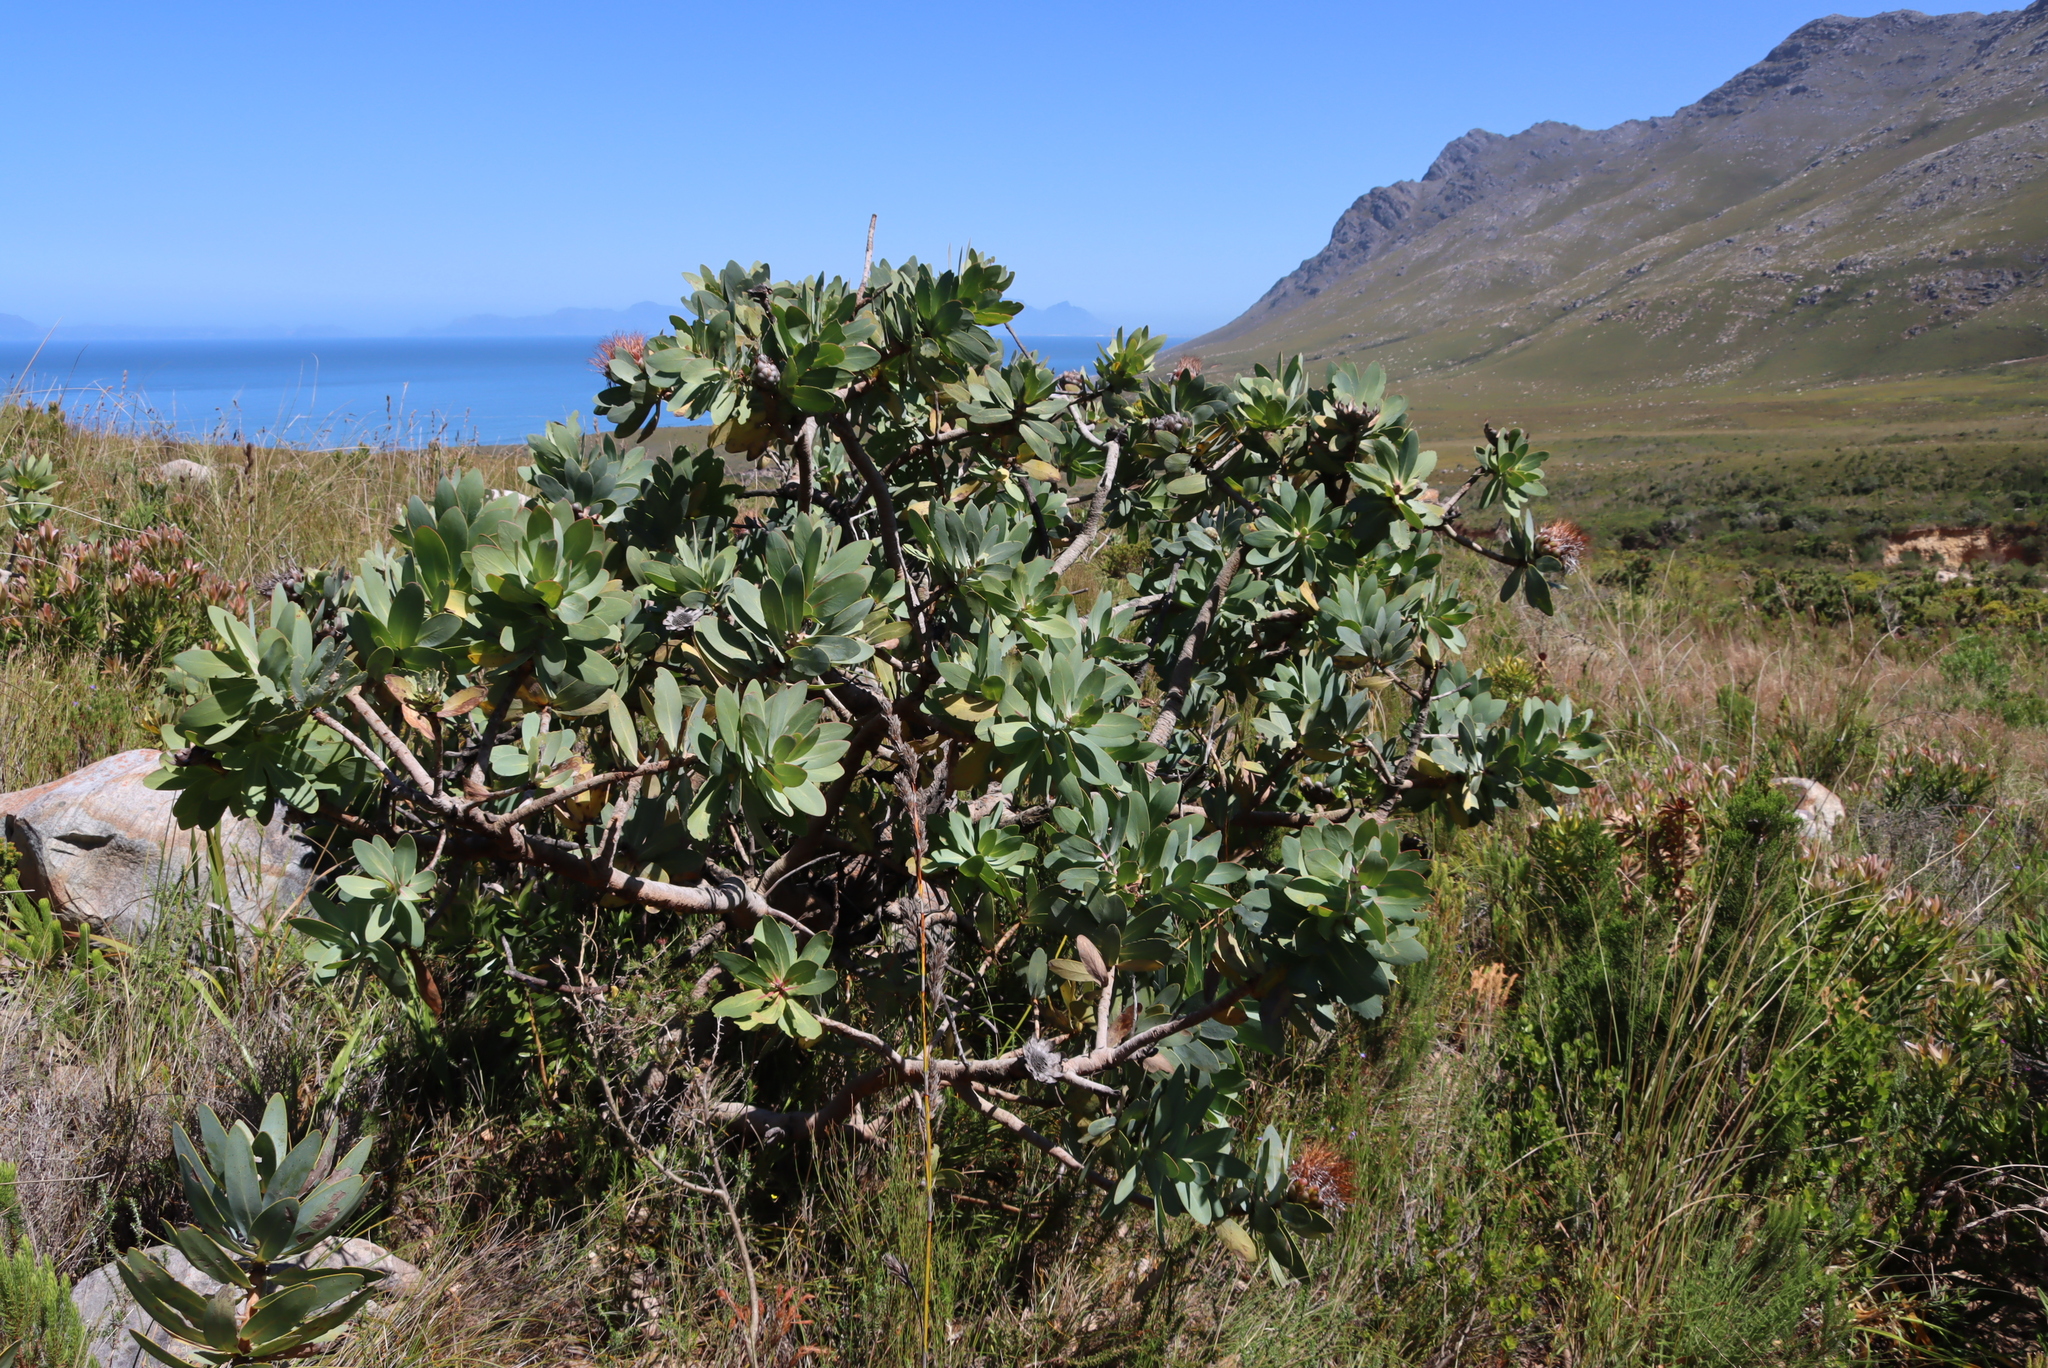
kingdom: Plantae
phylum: Tracheophyta
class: Magnoliopsida
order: Proteales
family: Proteaceae
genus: Protea
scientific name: Protea nitida
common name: Tree protea
